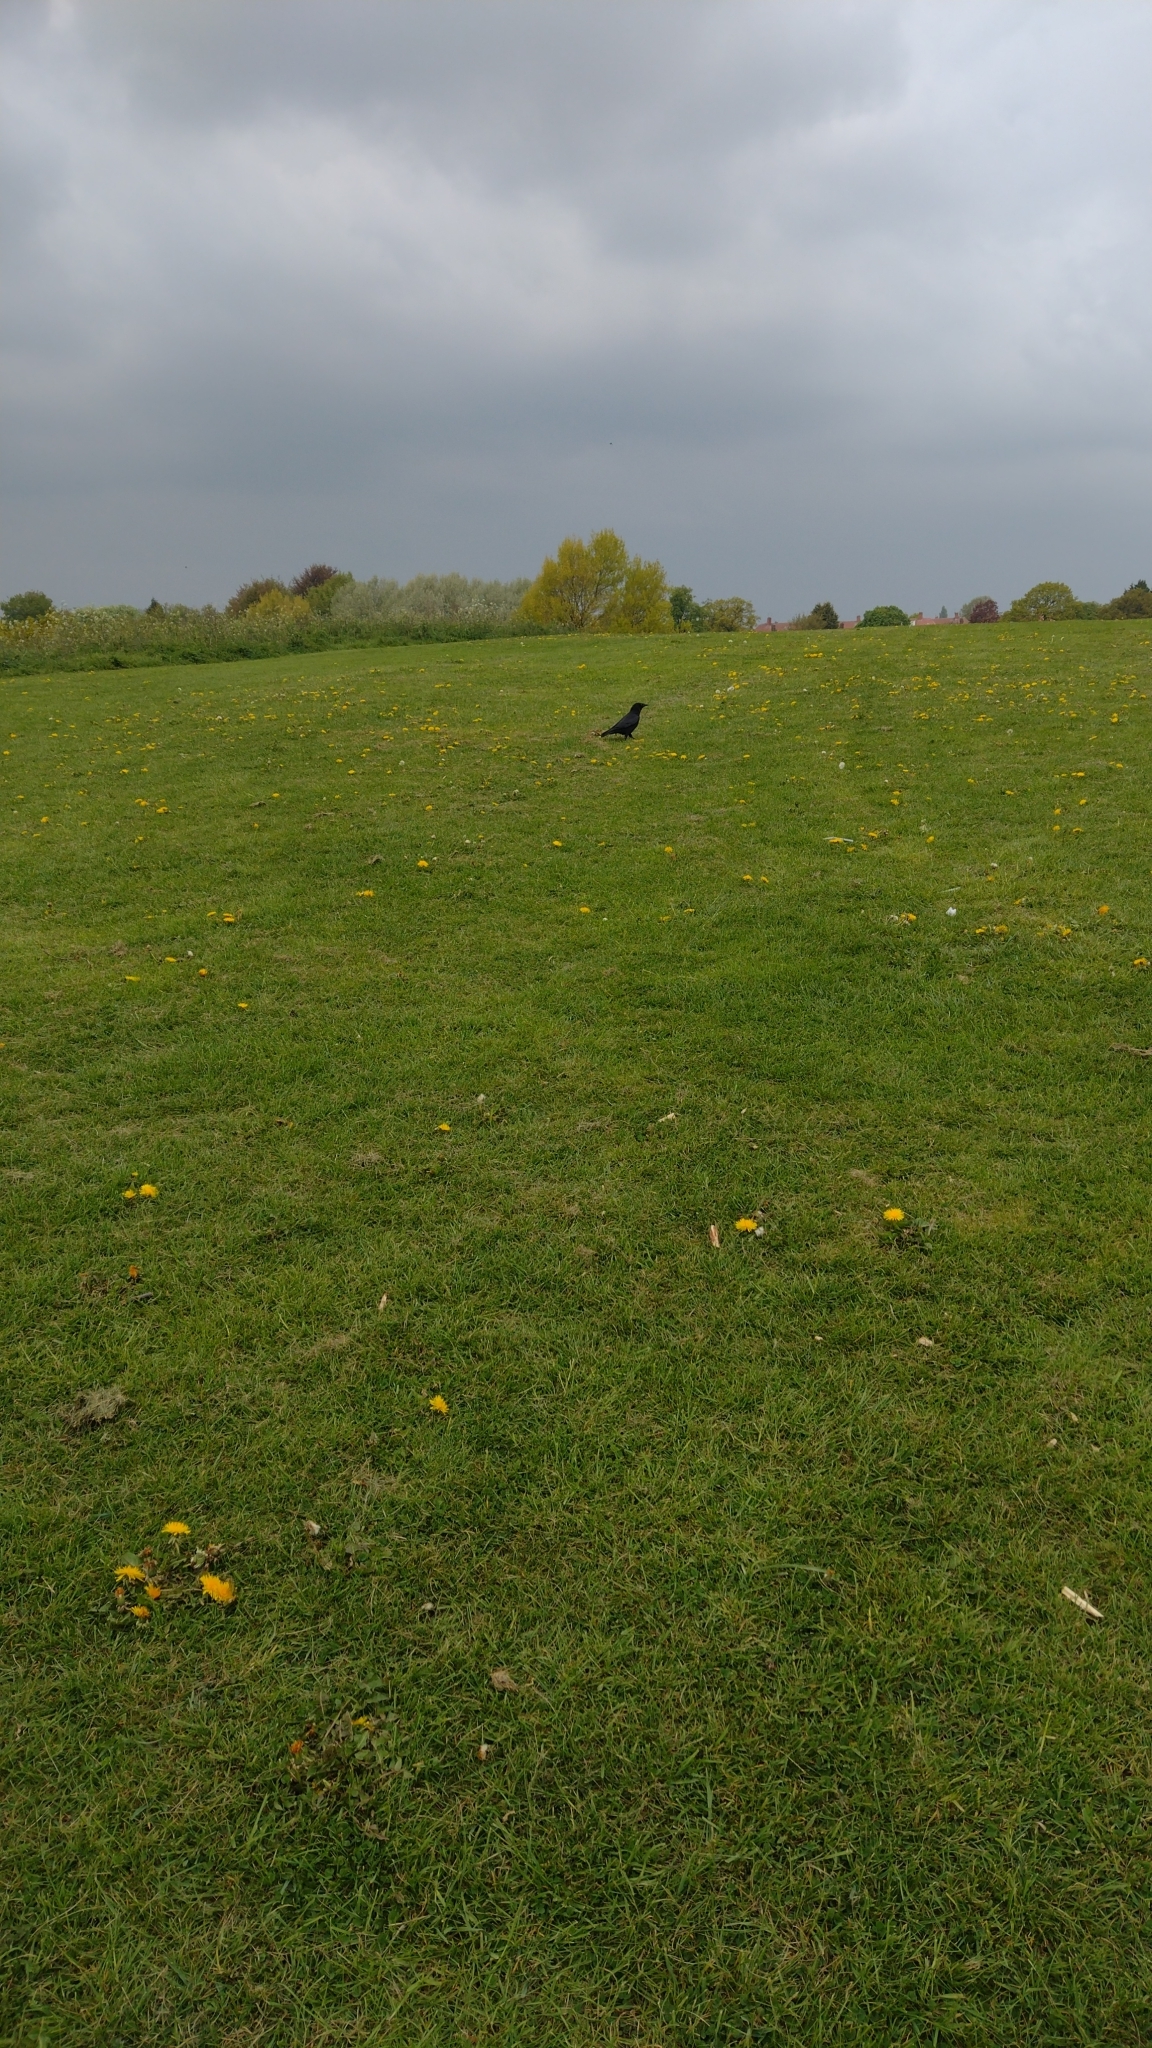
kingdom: Animalia
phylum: Chordata
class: Aves
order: Passeriformes
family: Corvidae
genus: Corvus
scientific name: Corvus corone
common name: Carrion crow
